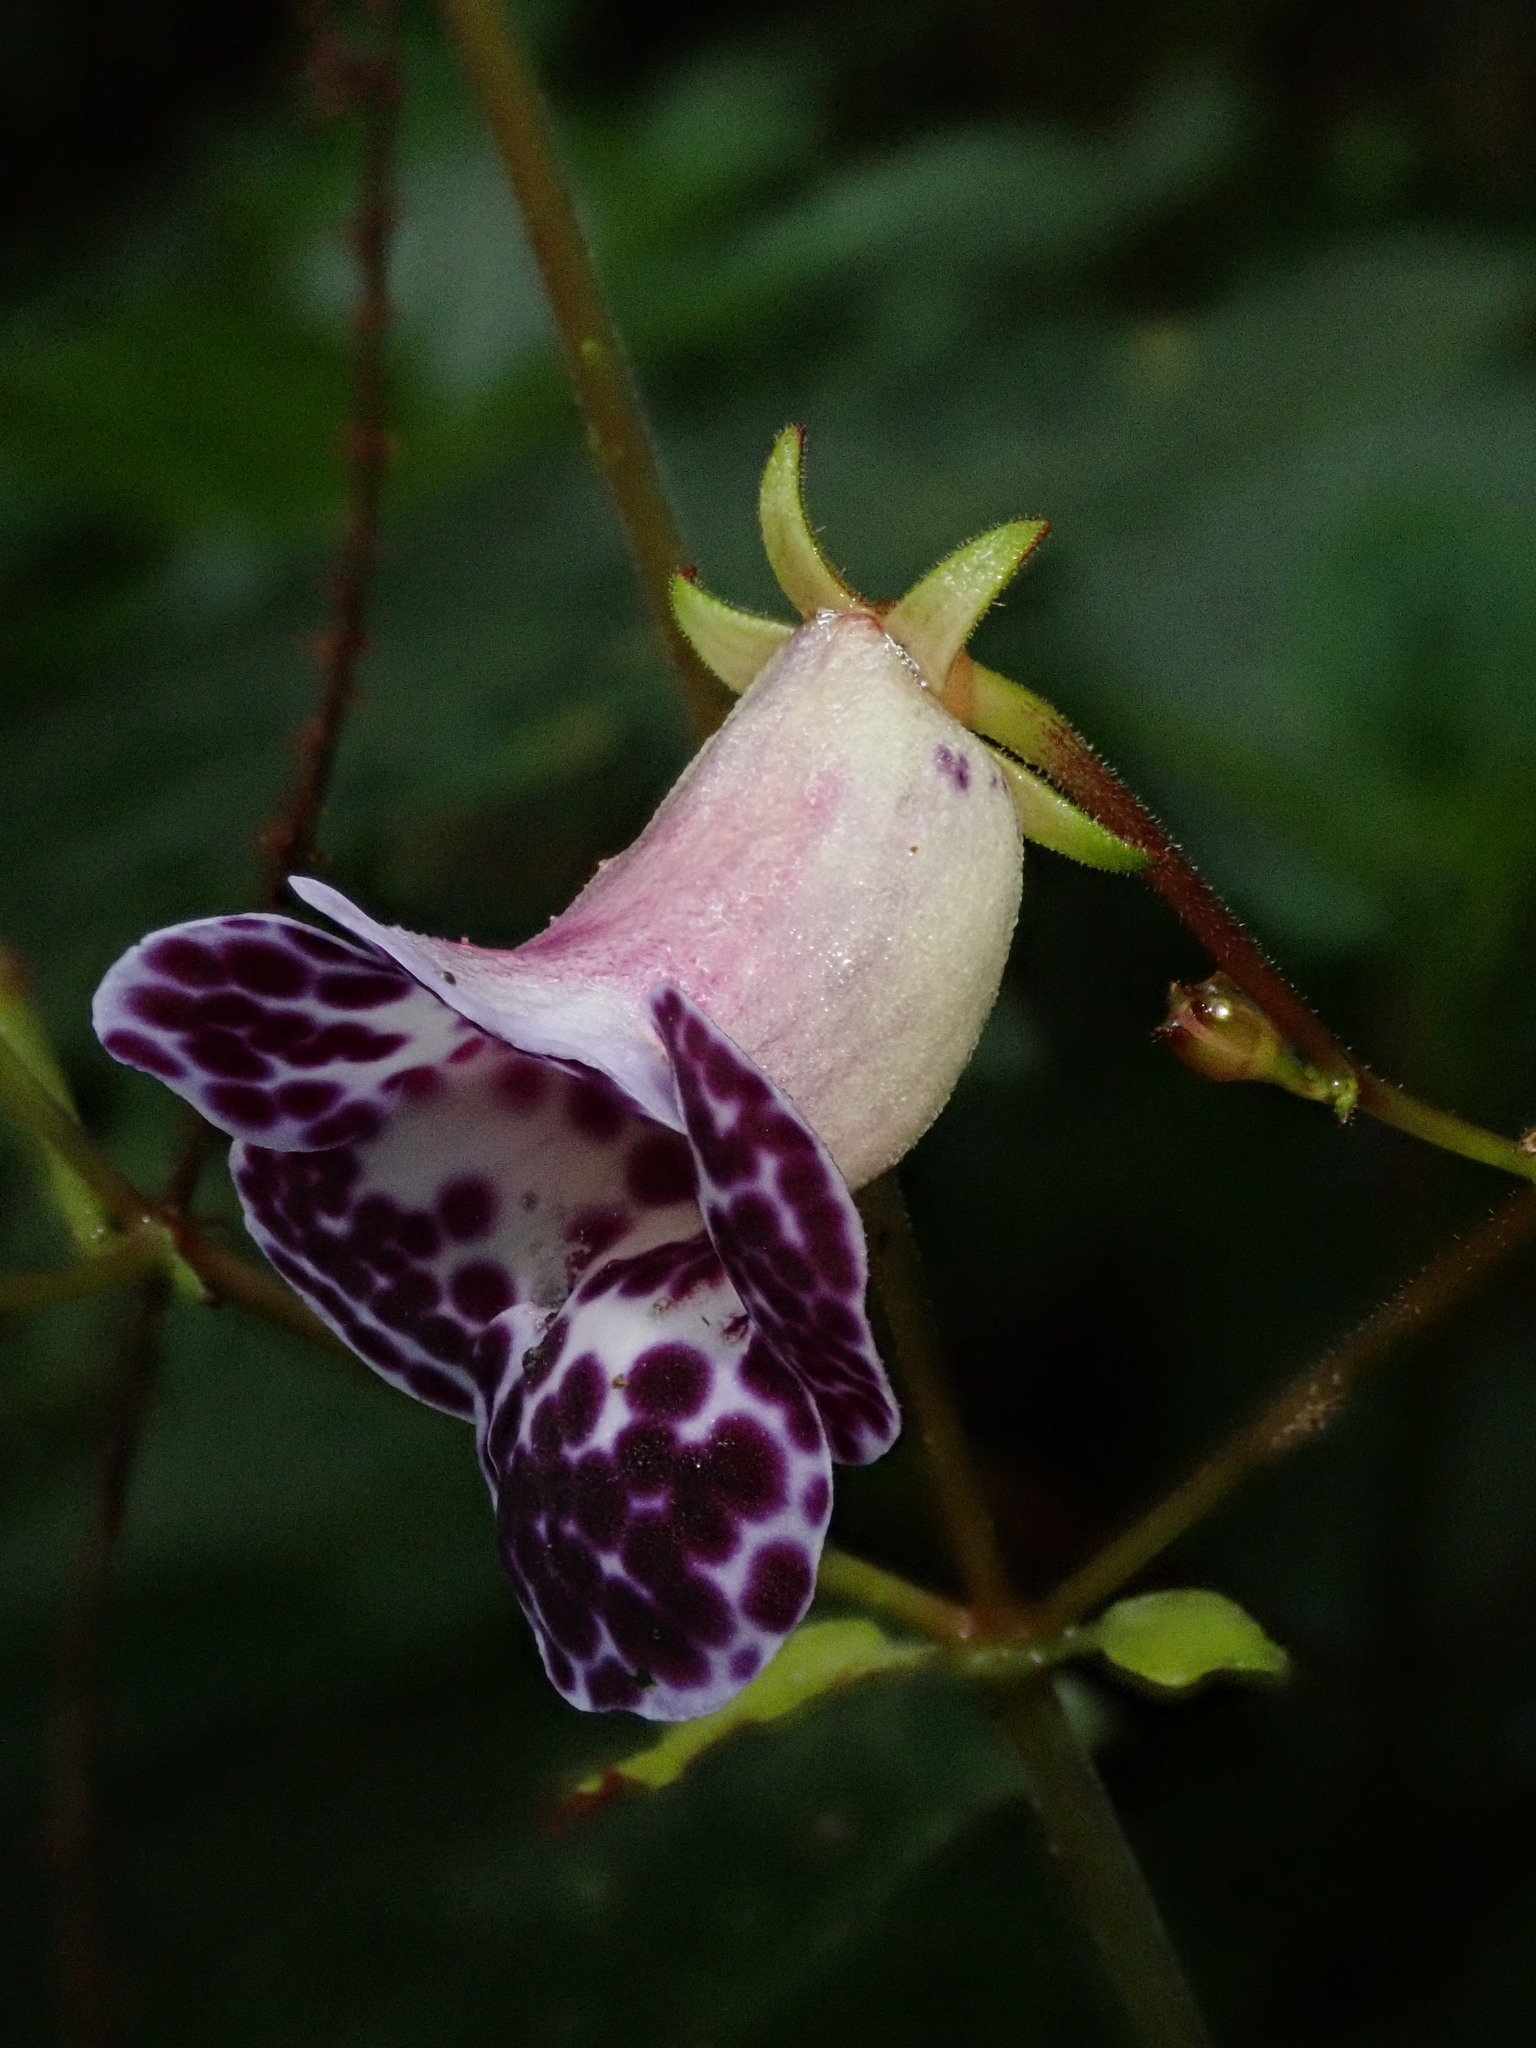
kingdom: Plantae
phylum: Tracheophyta
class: Magnoliopsida
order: Lamiales
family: Gesneriaceae
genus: Monopyle
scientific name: Monopyle paniculata
